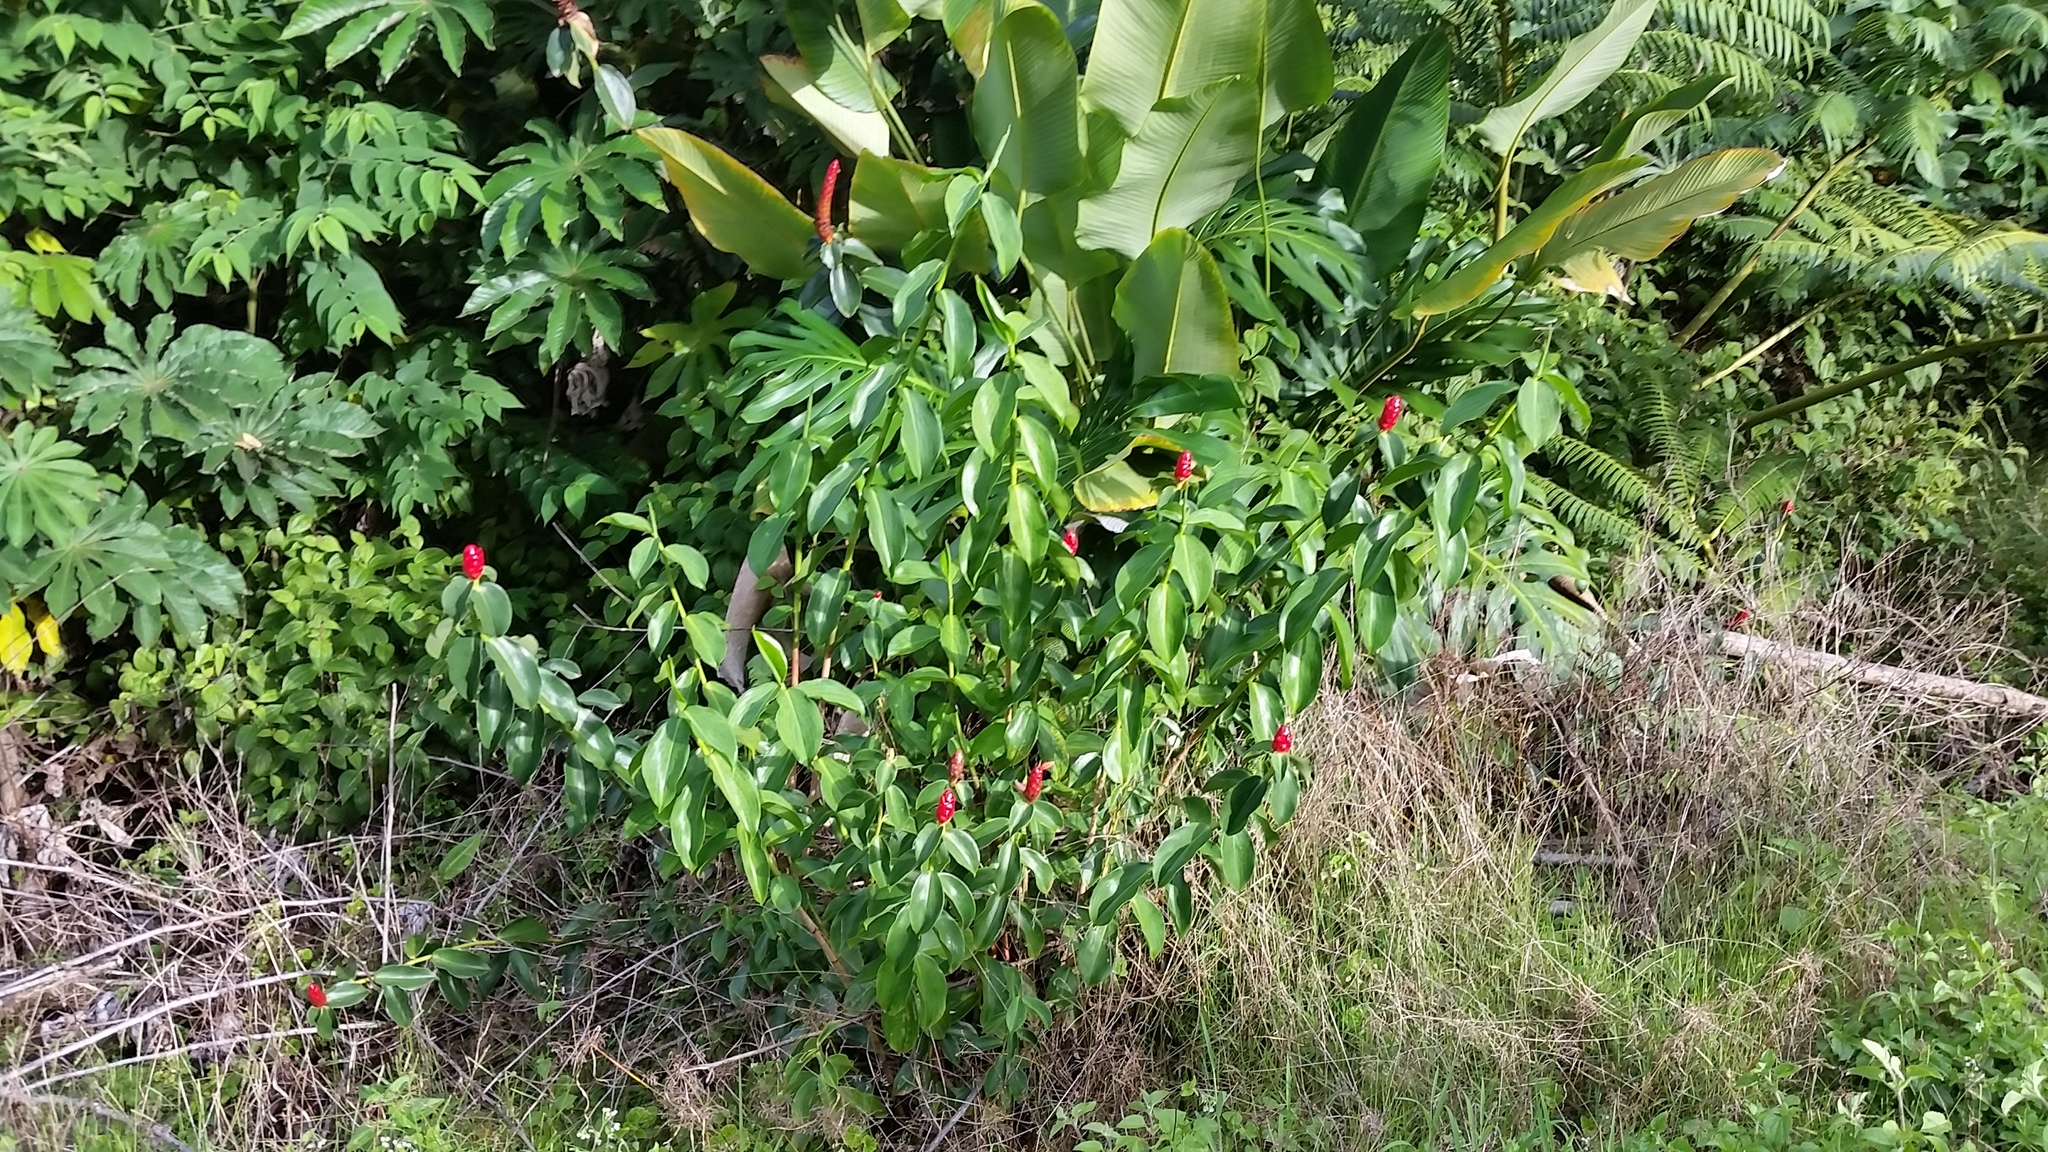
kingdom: Plantae
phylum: Tracheophyta
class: Liliopsida
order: Zingiberales
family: Costaceae
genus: Costus
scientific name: Costus woodsonii
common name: Scarlet spiral-ginger
